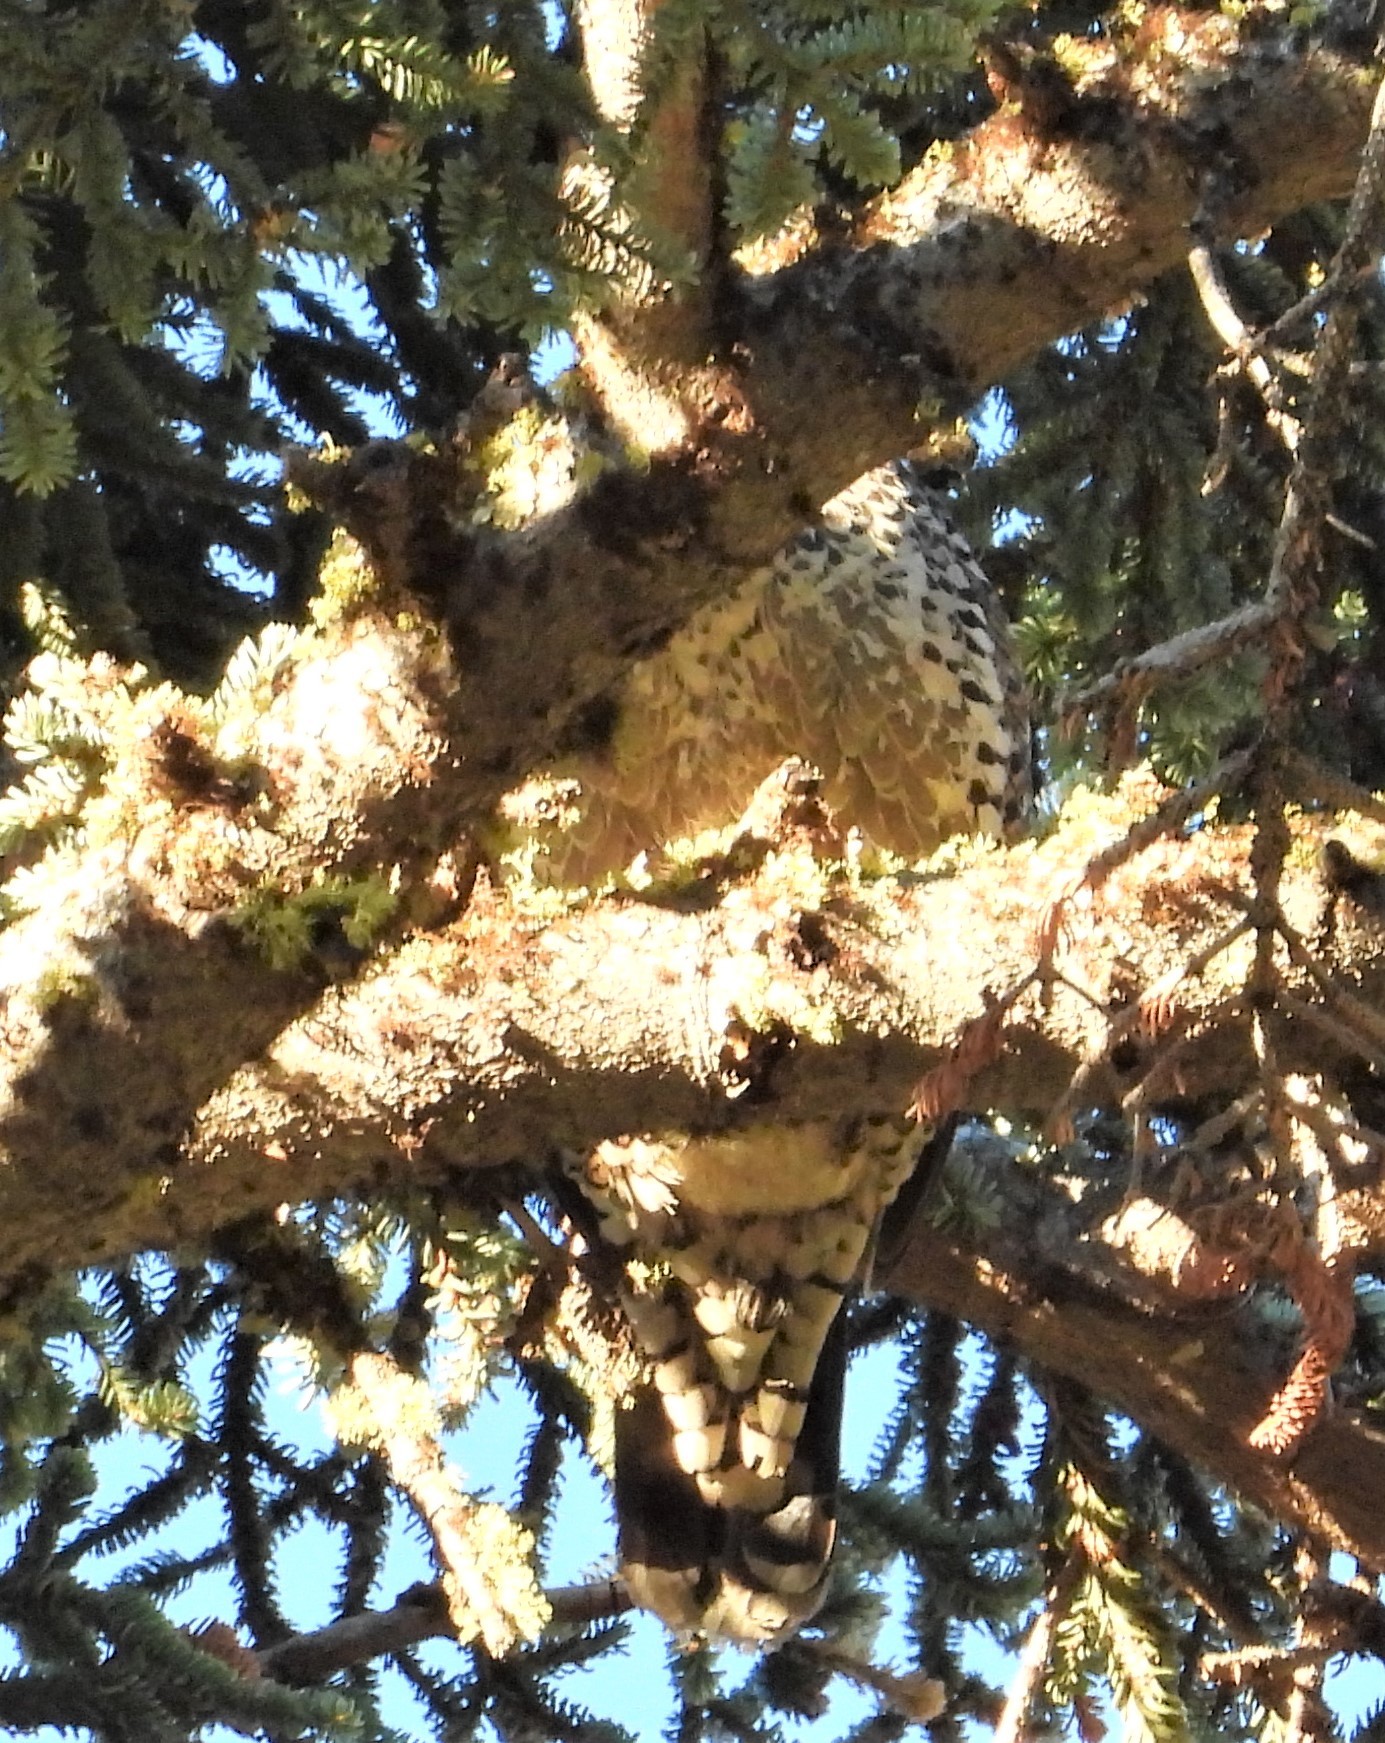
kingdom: Animalia
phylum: Chordata
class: Aves
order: Galliformes
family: Phasianidae
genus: Dendragapus
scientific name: Dendragapus fuliginosus
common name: Sooty grouse
